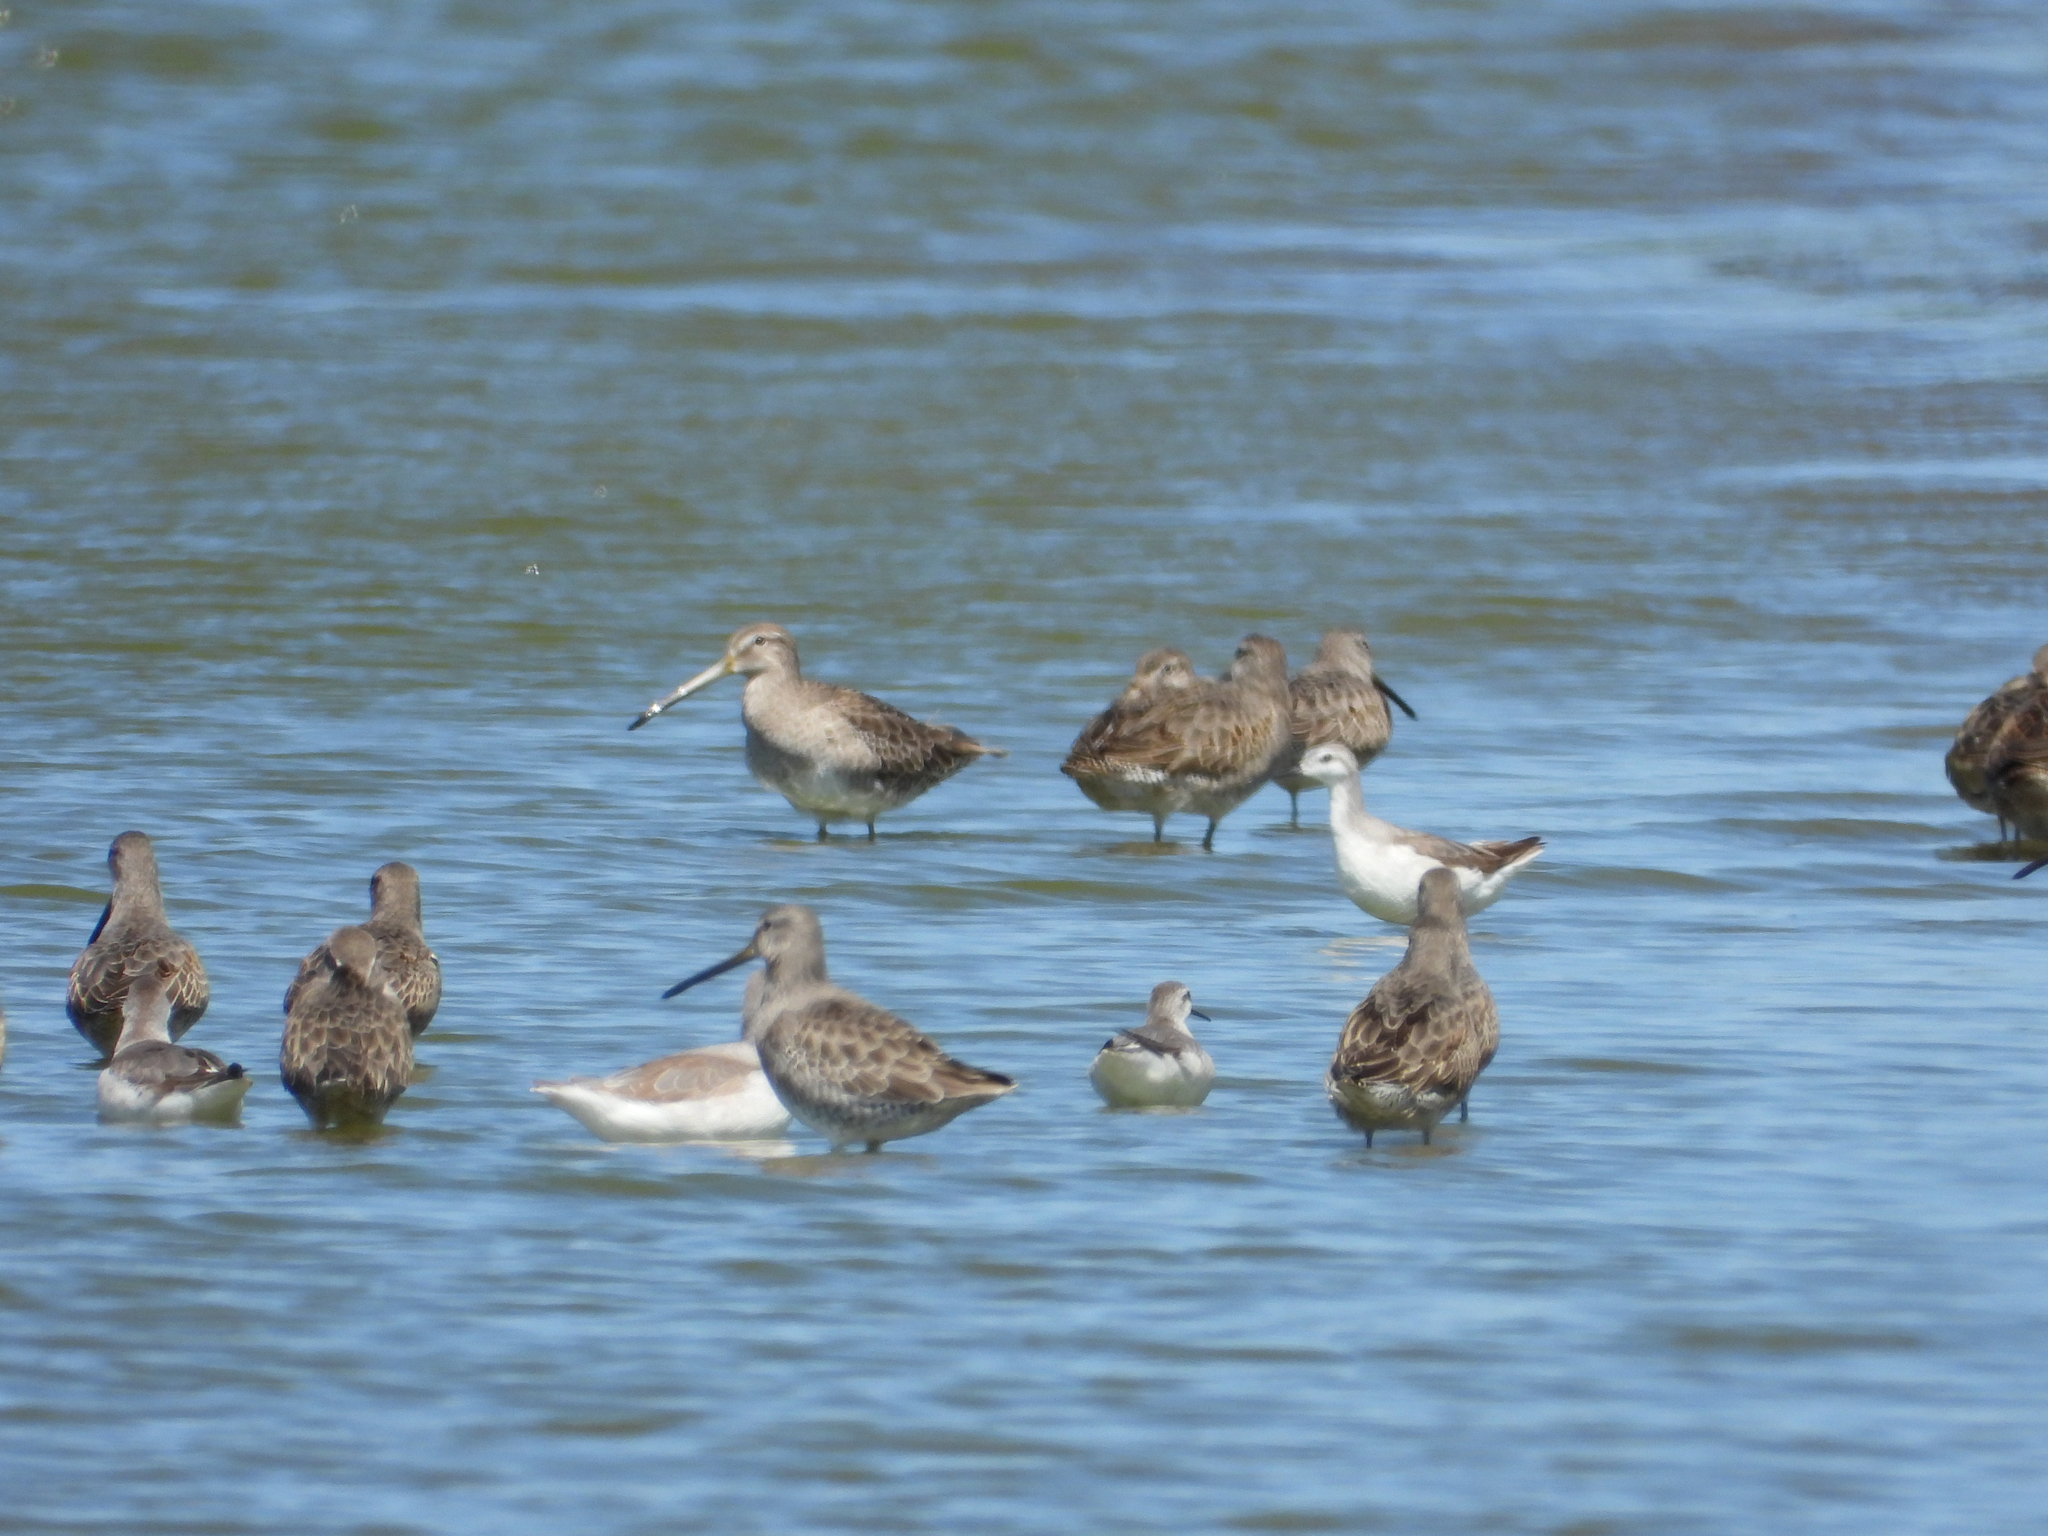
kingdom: Animalia
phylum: Chordata
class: Aves
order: Charadriiformes
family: Scolopacidae
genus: Limnodromus
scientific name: Limnodromus scolopaceus
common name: Long-billed dowitcher
